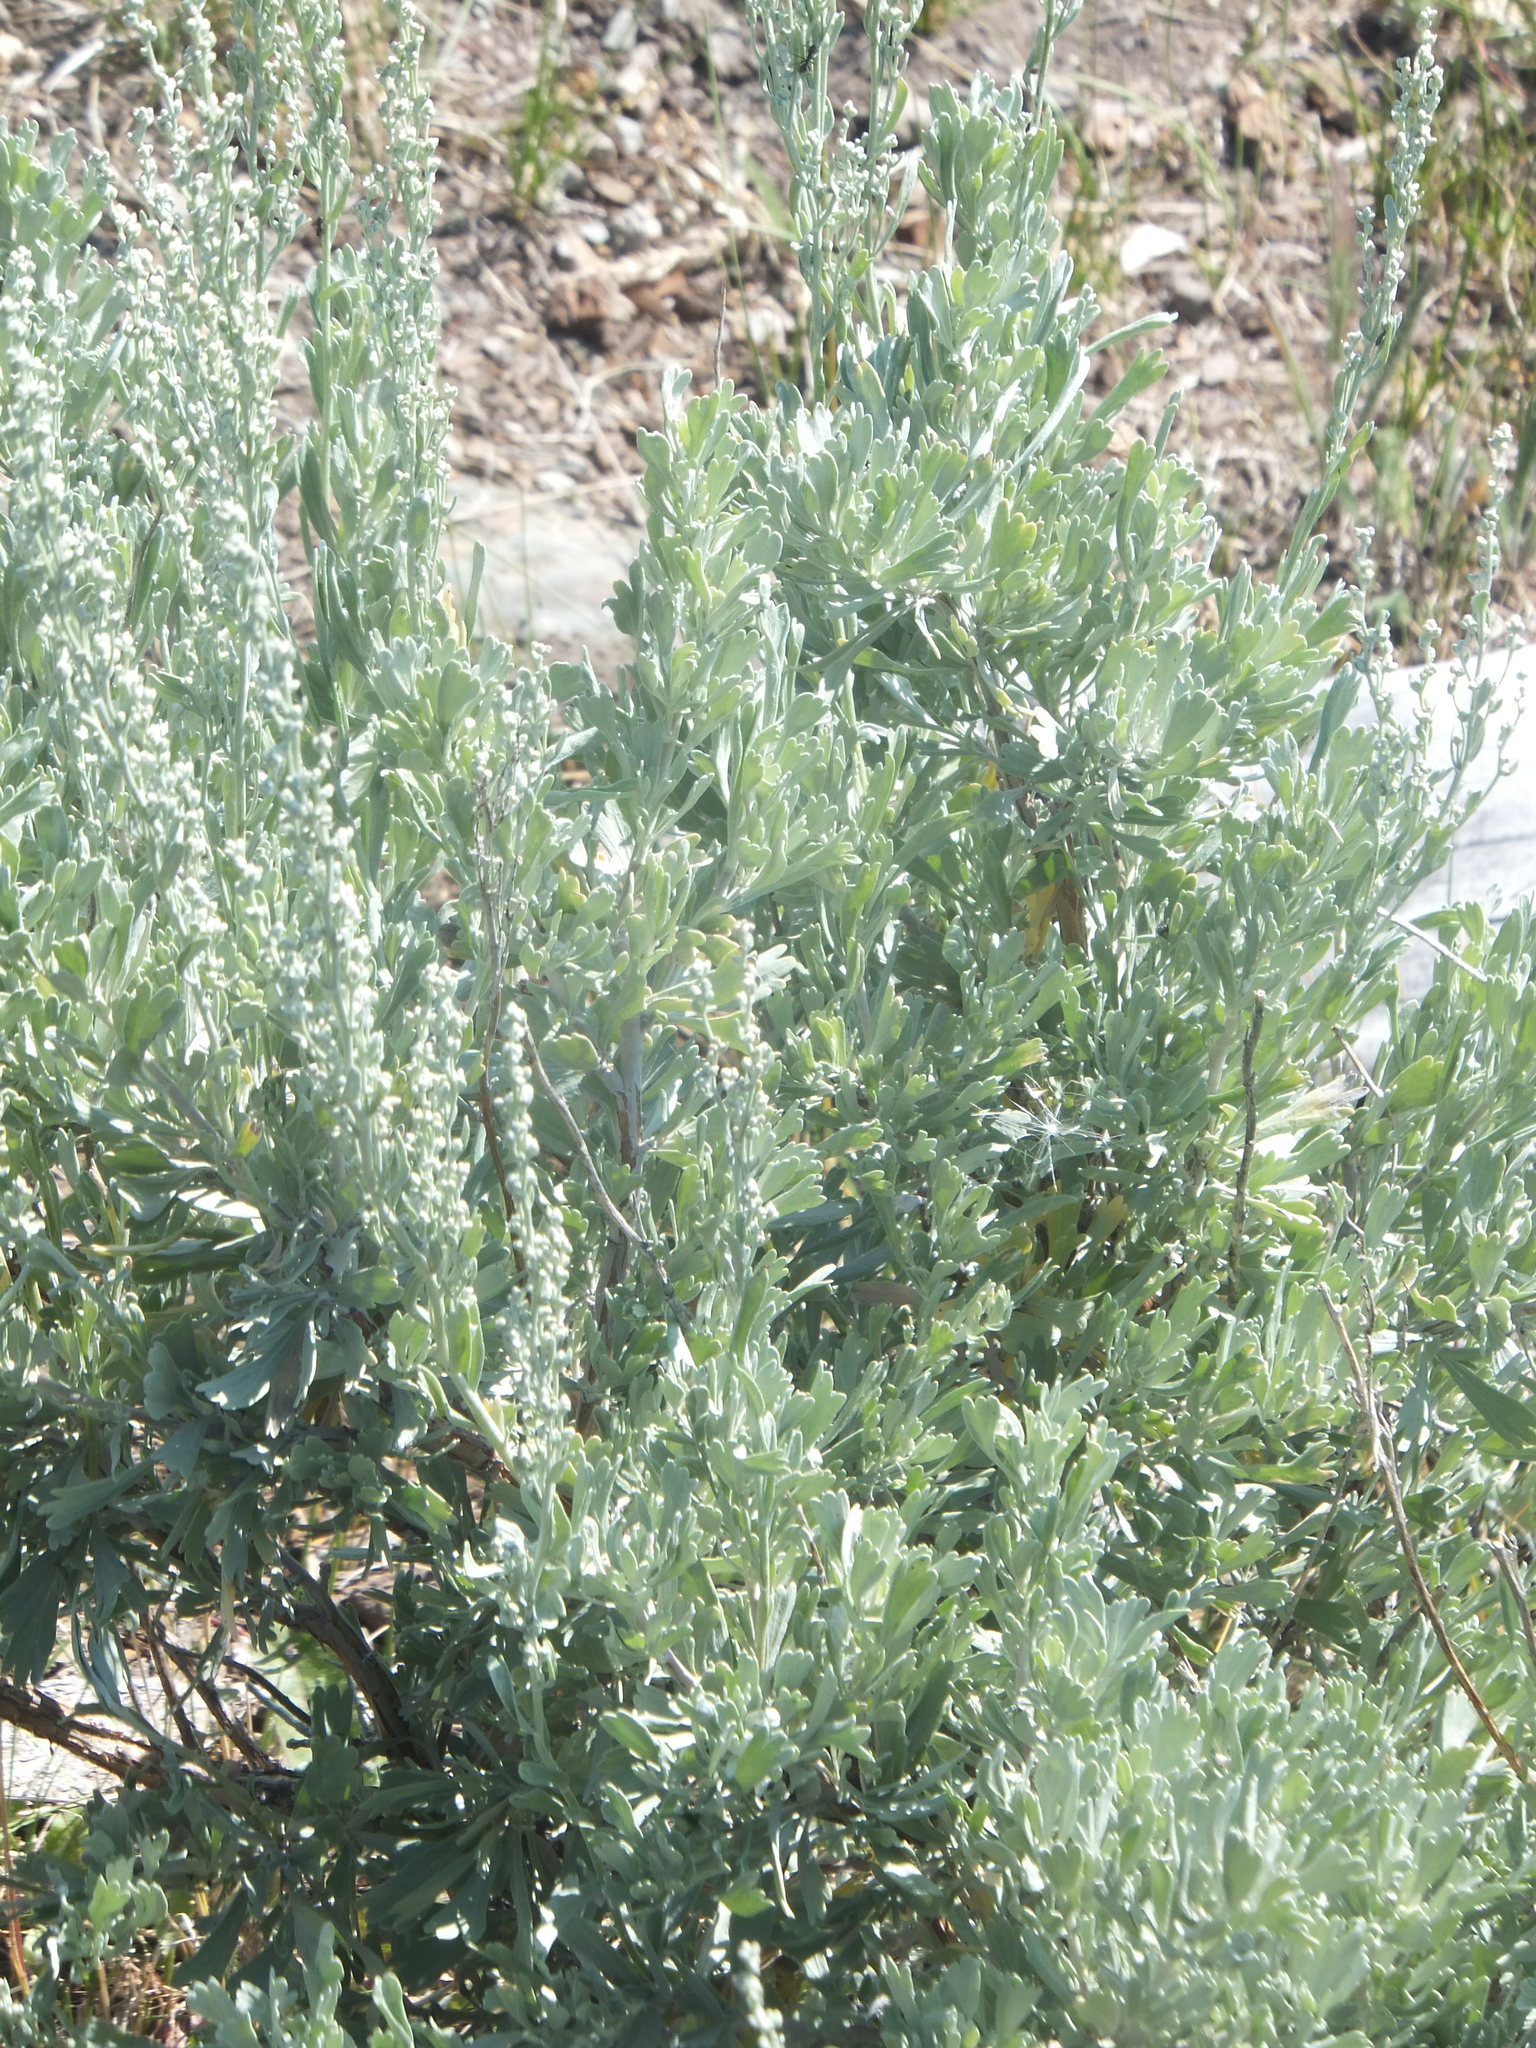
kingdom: Plantae
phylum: Tracheophyta
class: Magnoliopsida
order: Asterales
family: Asteraceae
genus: Artemisia
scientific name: Artemisia tridentata
